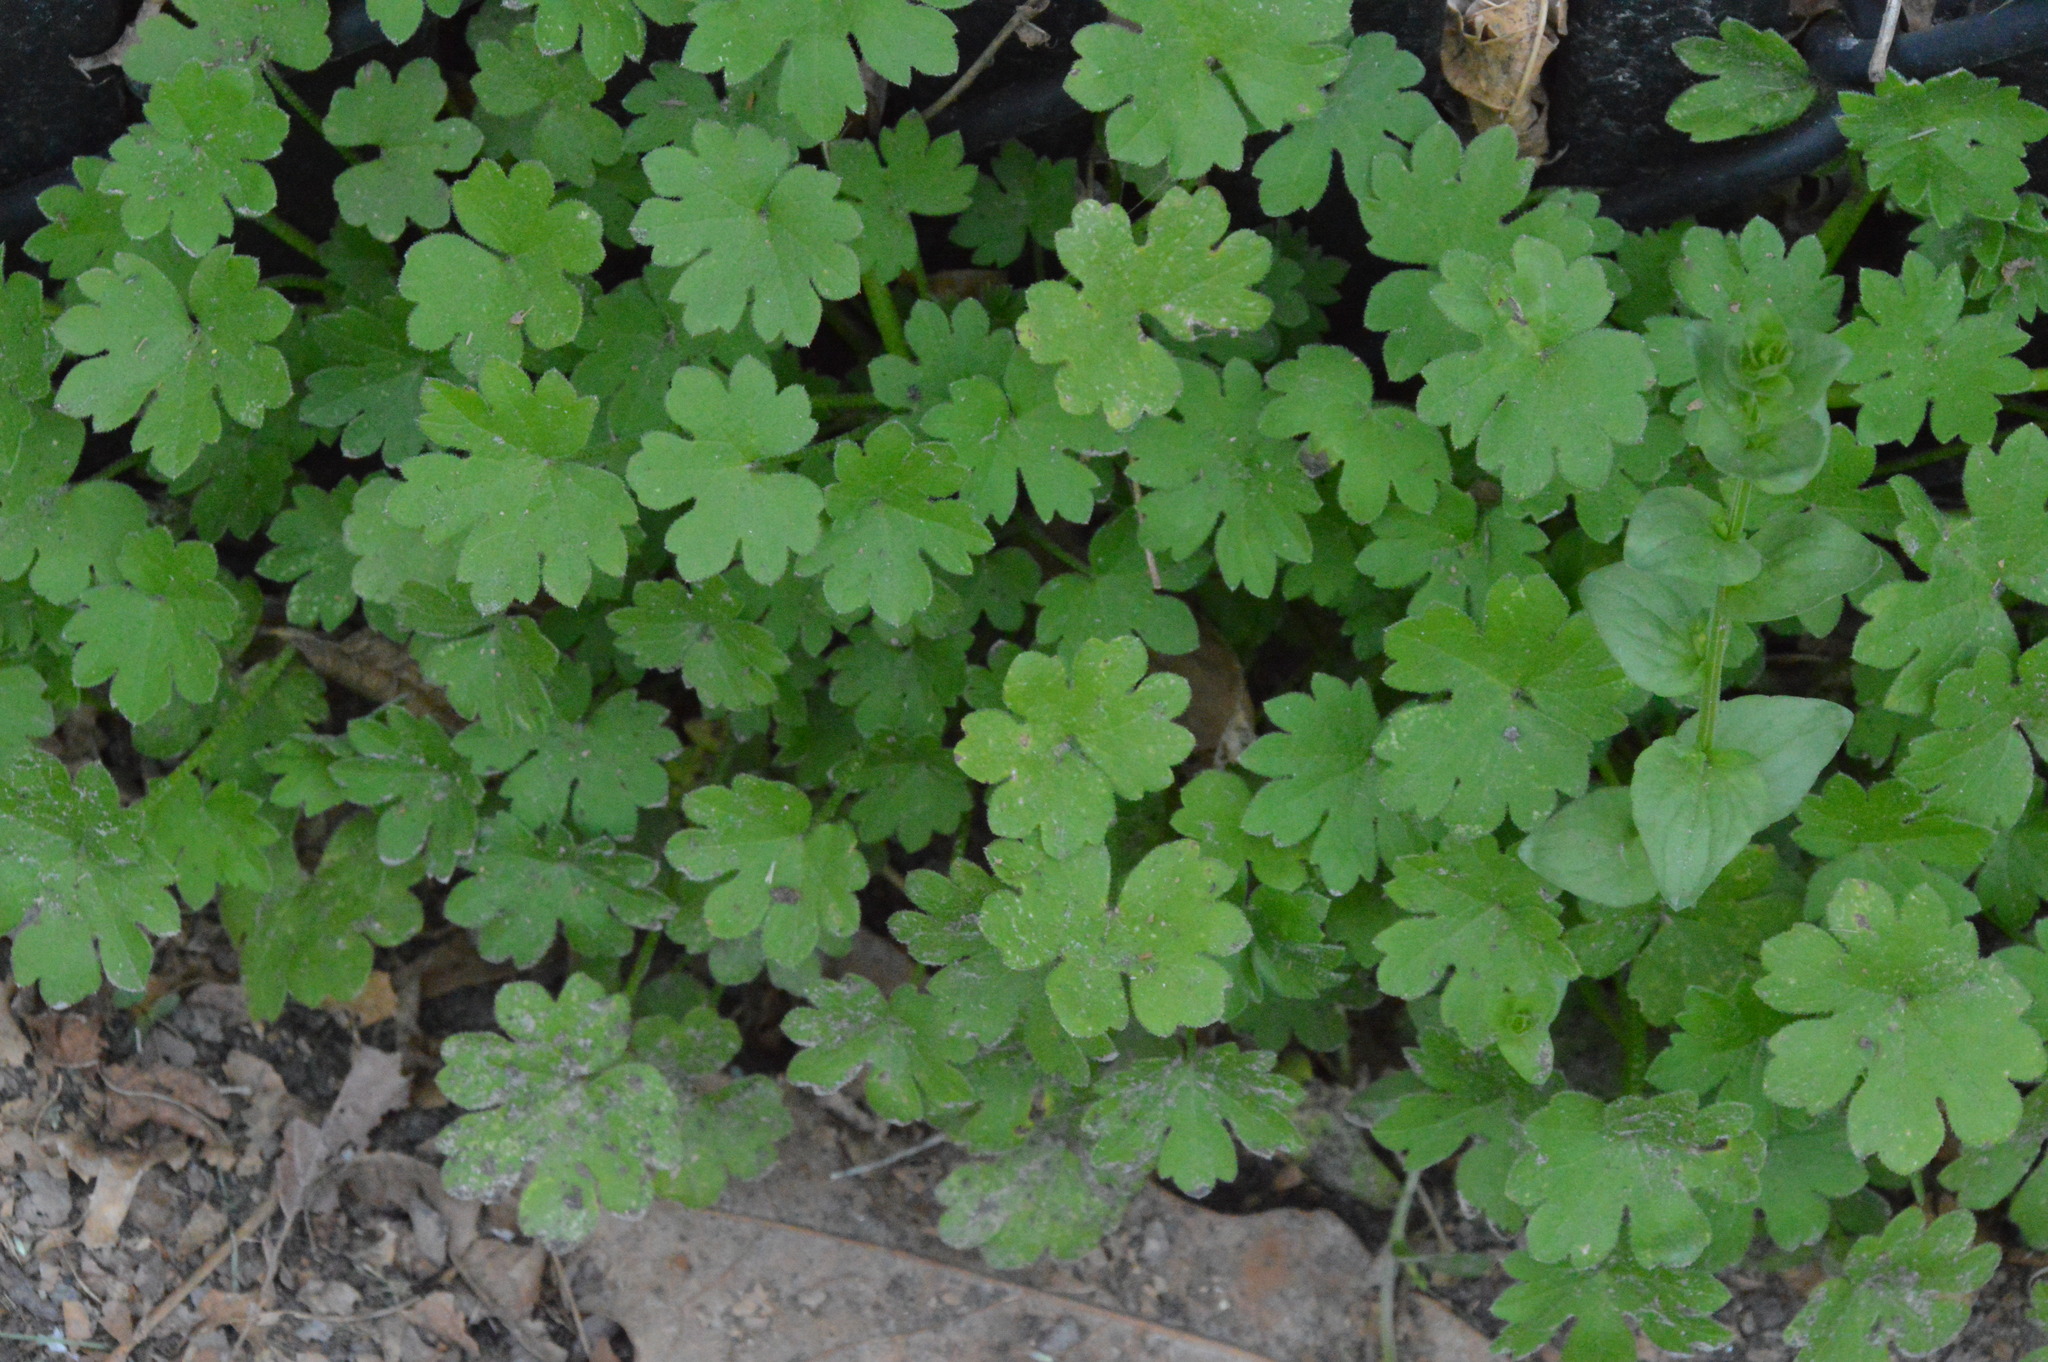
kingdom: Plantae
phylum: Tracheophyta
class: Magnoliopsida
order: Apiales
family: Apiaceae
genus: Bowlesia
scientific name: Bowlesia incana
